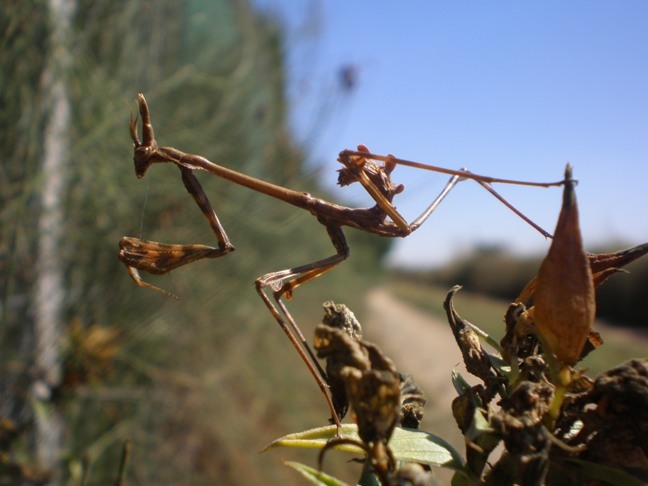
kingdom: Animalia
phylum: Arthropoda
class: Insecta
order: Mantodea
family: Empusidae
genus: Empusa
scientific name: Empusa pennata
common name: Conehead mantis
